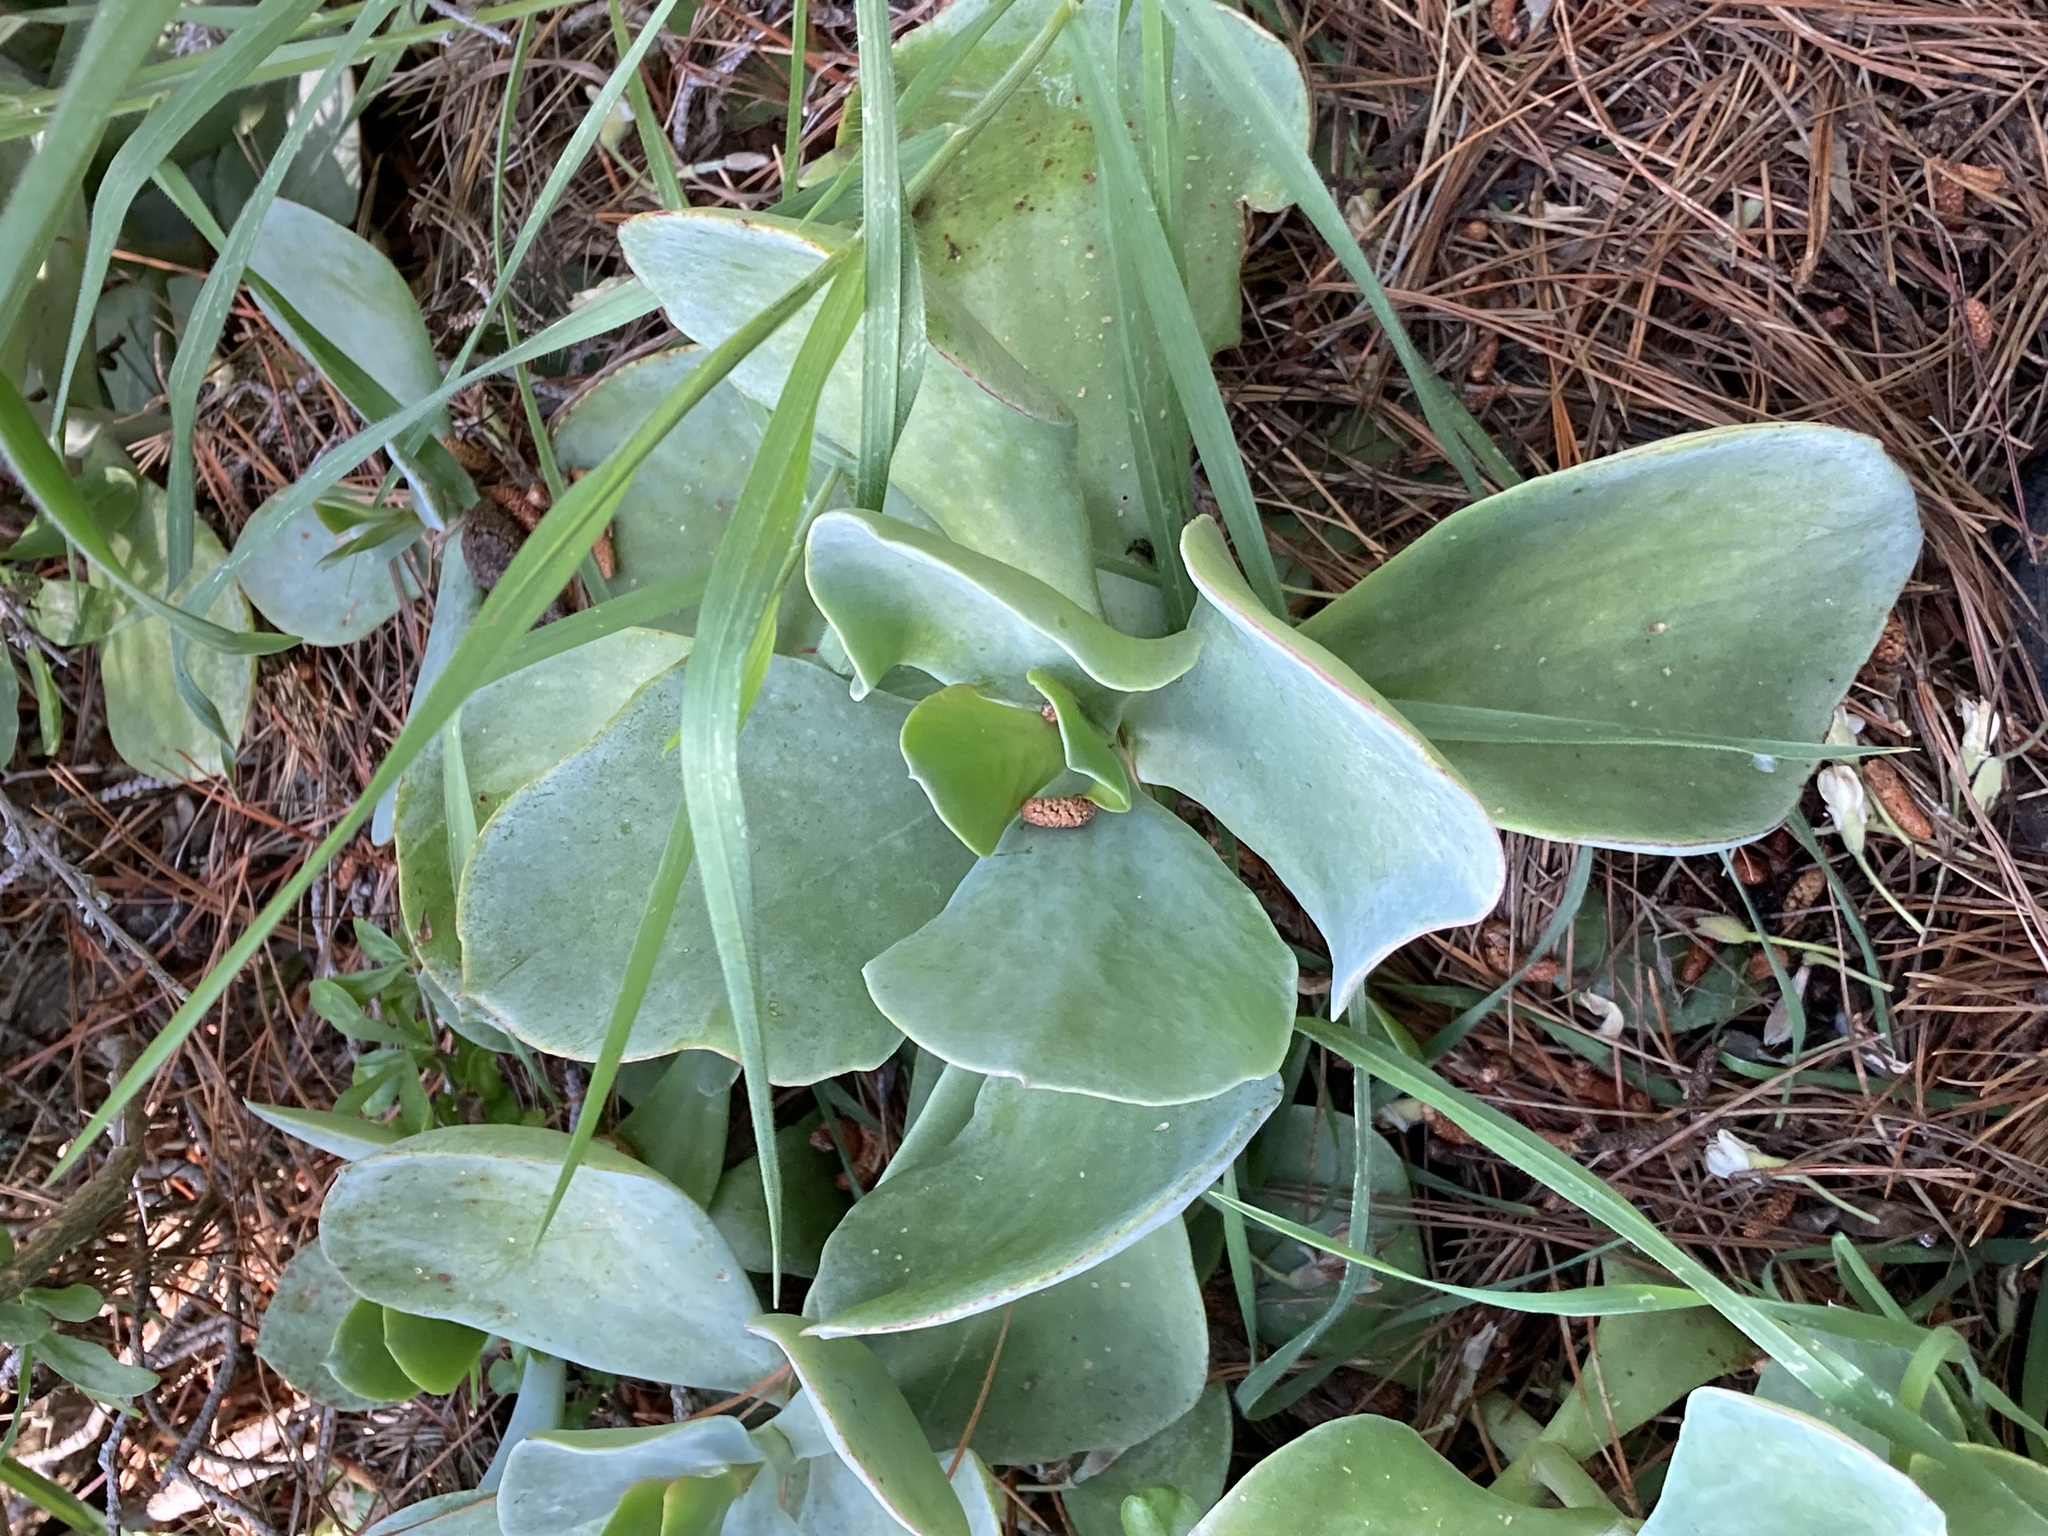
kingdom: Plantae
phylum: Tracheophyta
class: Magnoliopsida
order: Saxifragales
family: Crassulaceae
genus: Cotyledon
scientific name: Cotyledon orbiculata
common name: Pig's ear
